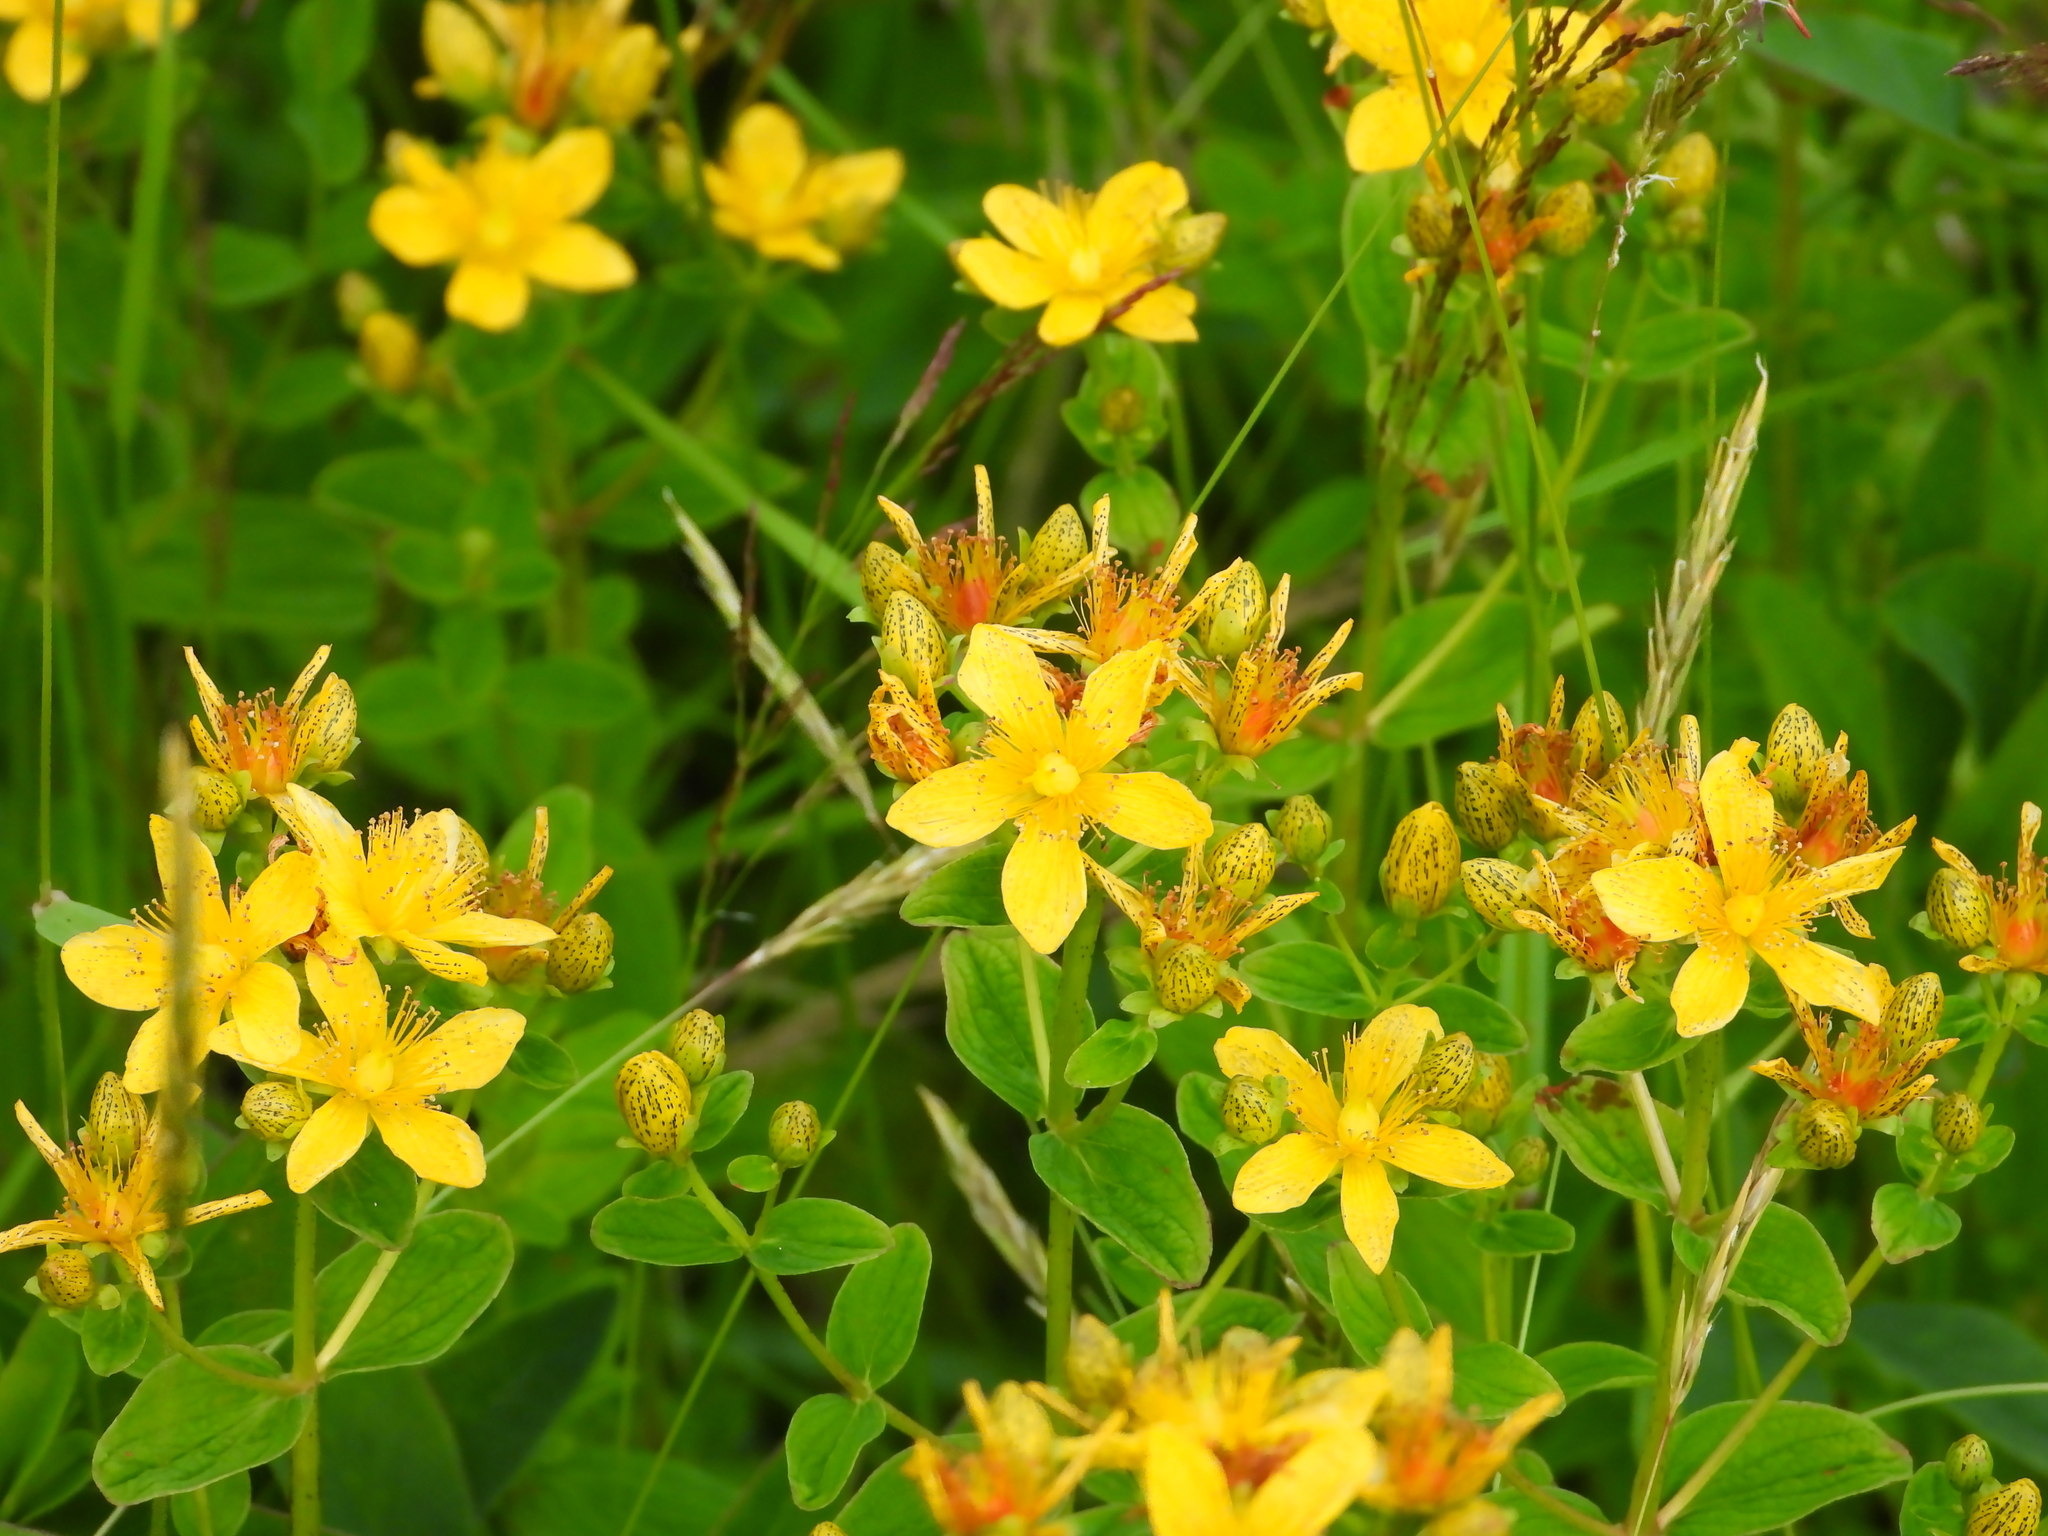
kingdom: Plantae
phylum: Tracheophyta
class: Magnoliopsida
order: Malpighiales
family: Hypericaceae
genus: Hypericum
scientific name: Hypericum maculatum
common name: Imperforate st. john's-wort
